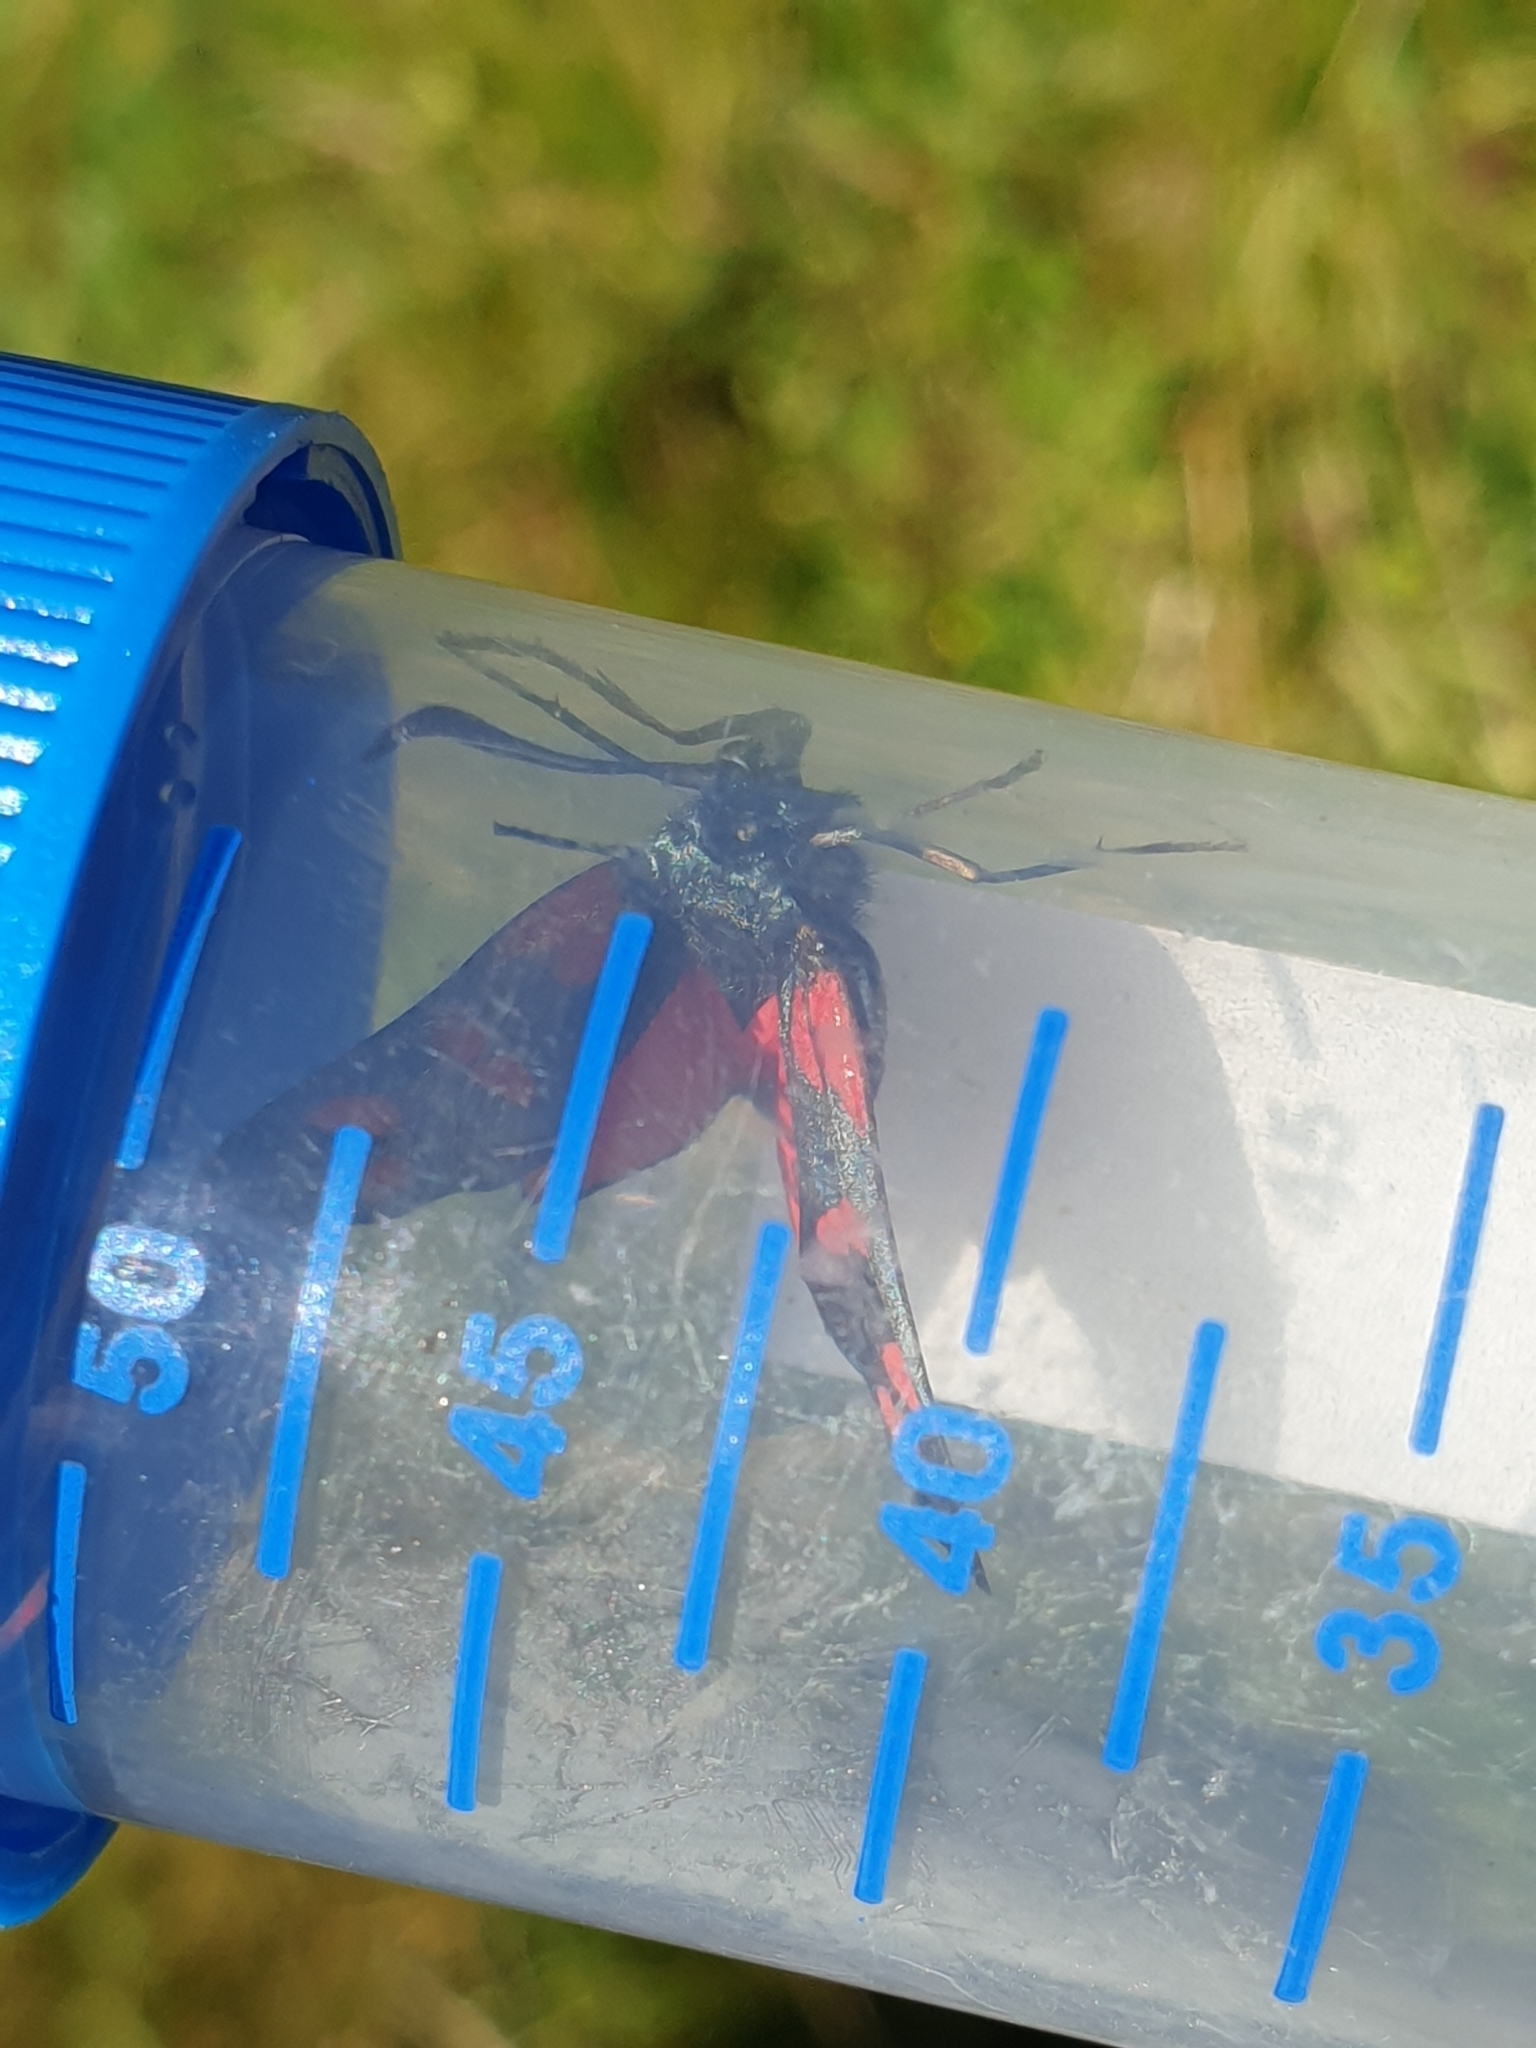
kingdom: Animalia
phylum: Arthropoda
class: Insecta
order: Lepidoptera
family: Zygaenidae
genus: Zygaena
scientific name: Zygaena filipendulae
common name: Six-spot burnet
